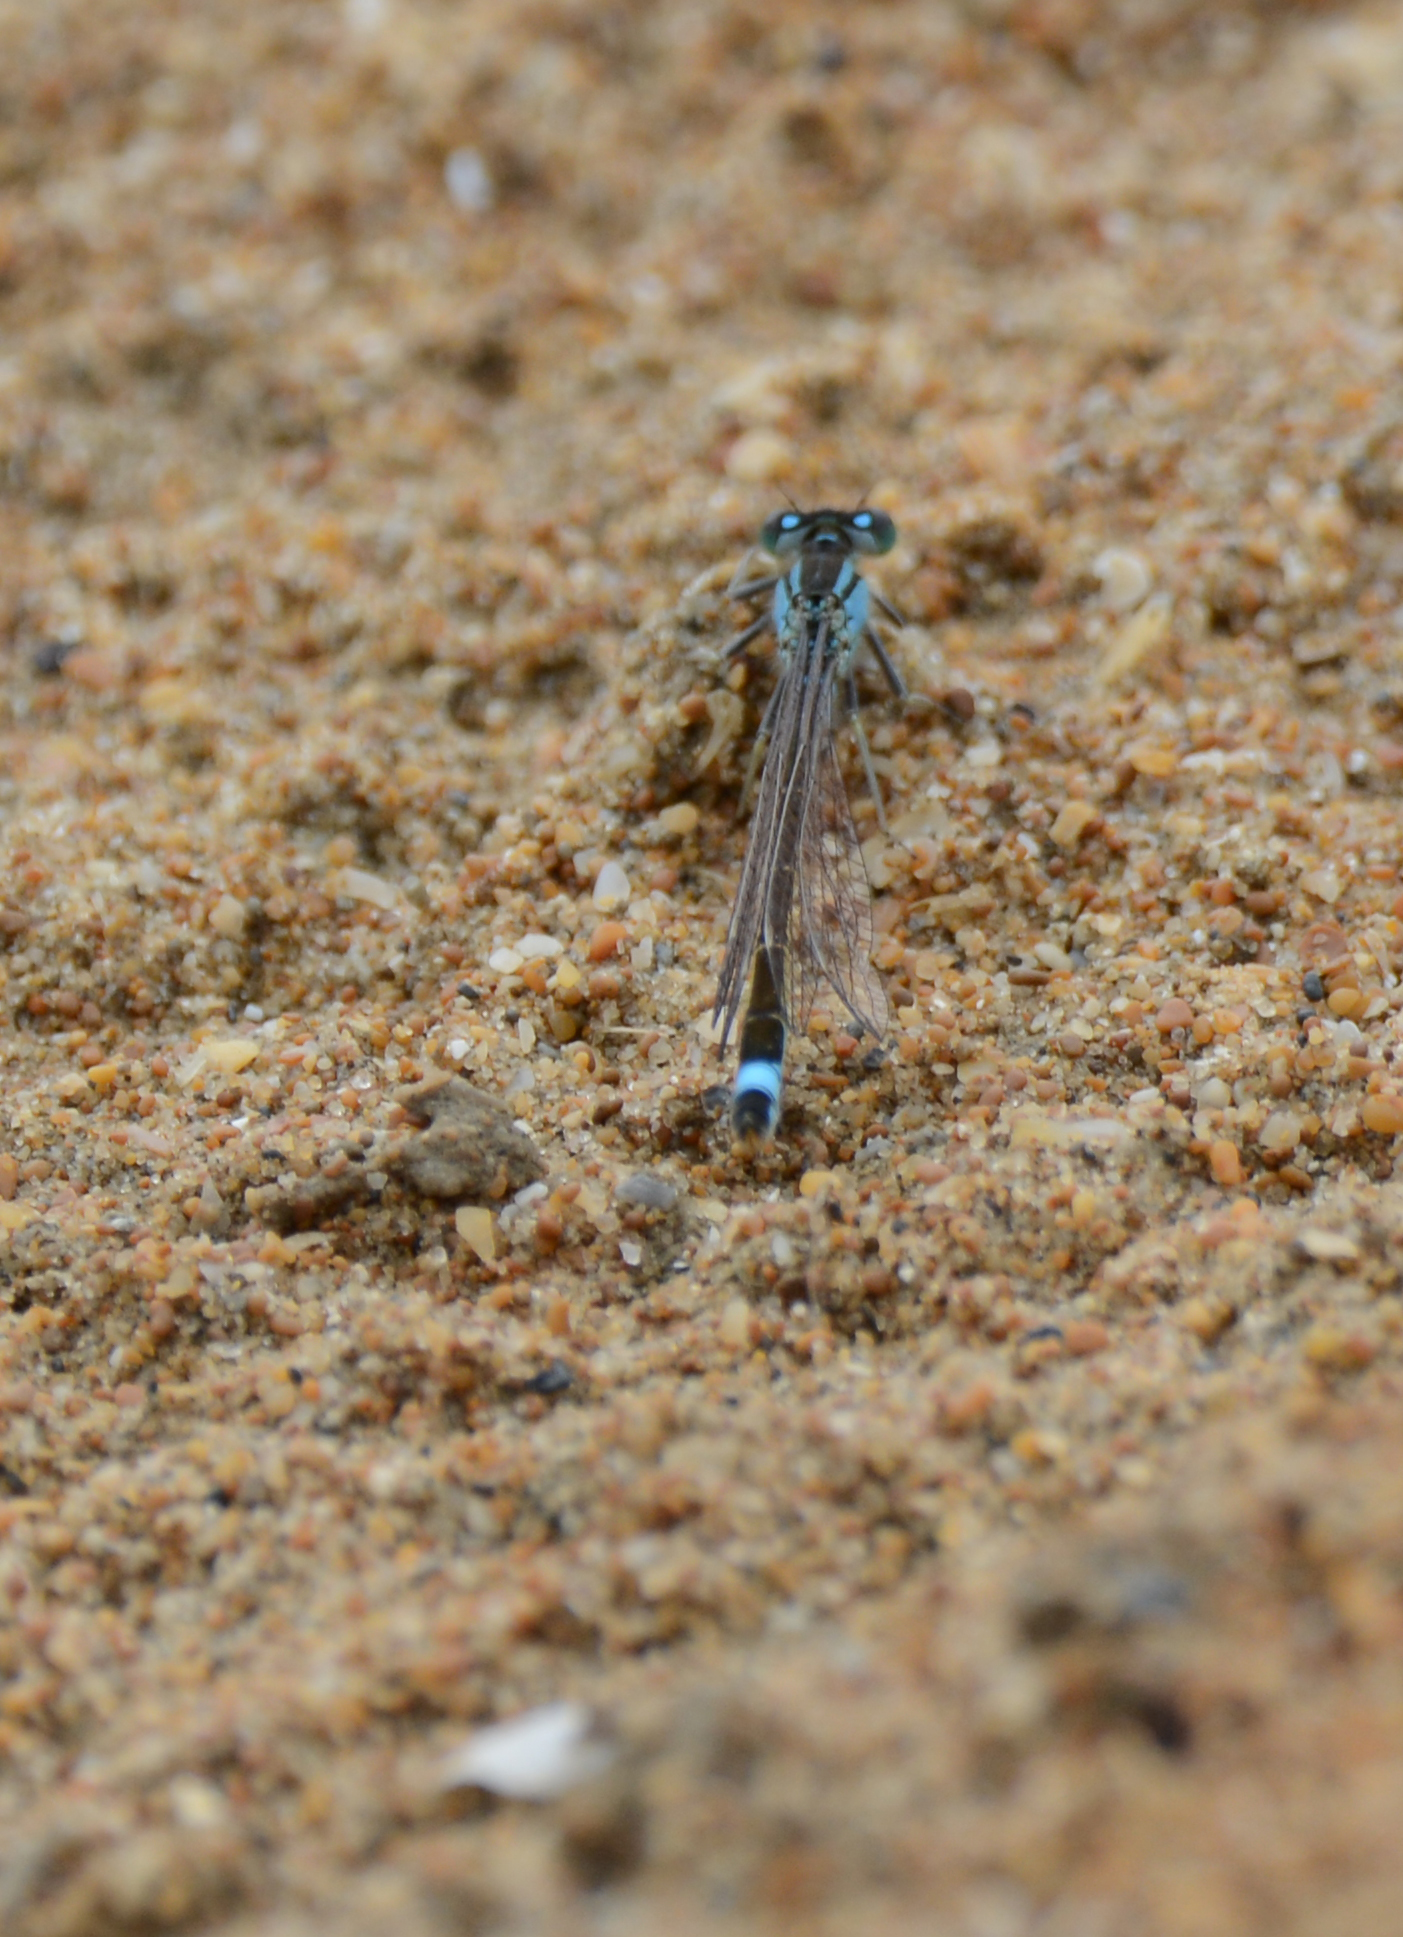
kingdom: Animalia
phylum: Arthropoda
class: Insecta
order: Odonata
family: Coenagrionidae
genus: Ischnura
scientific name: Ischnura elegans
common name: Blue-tailed damselfly
